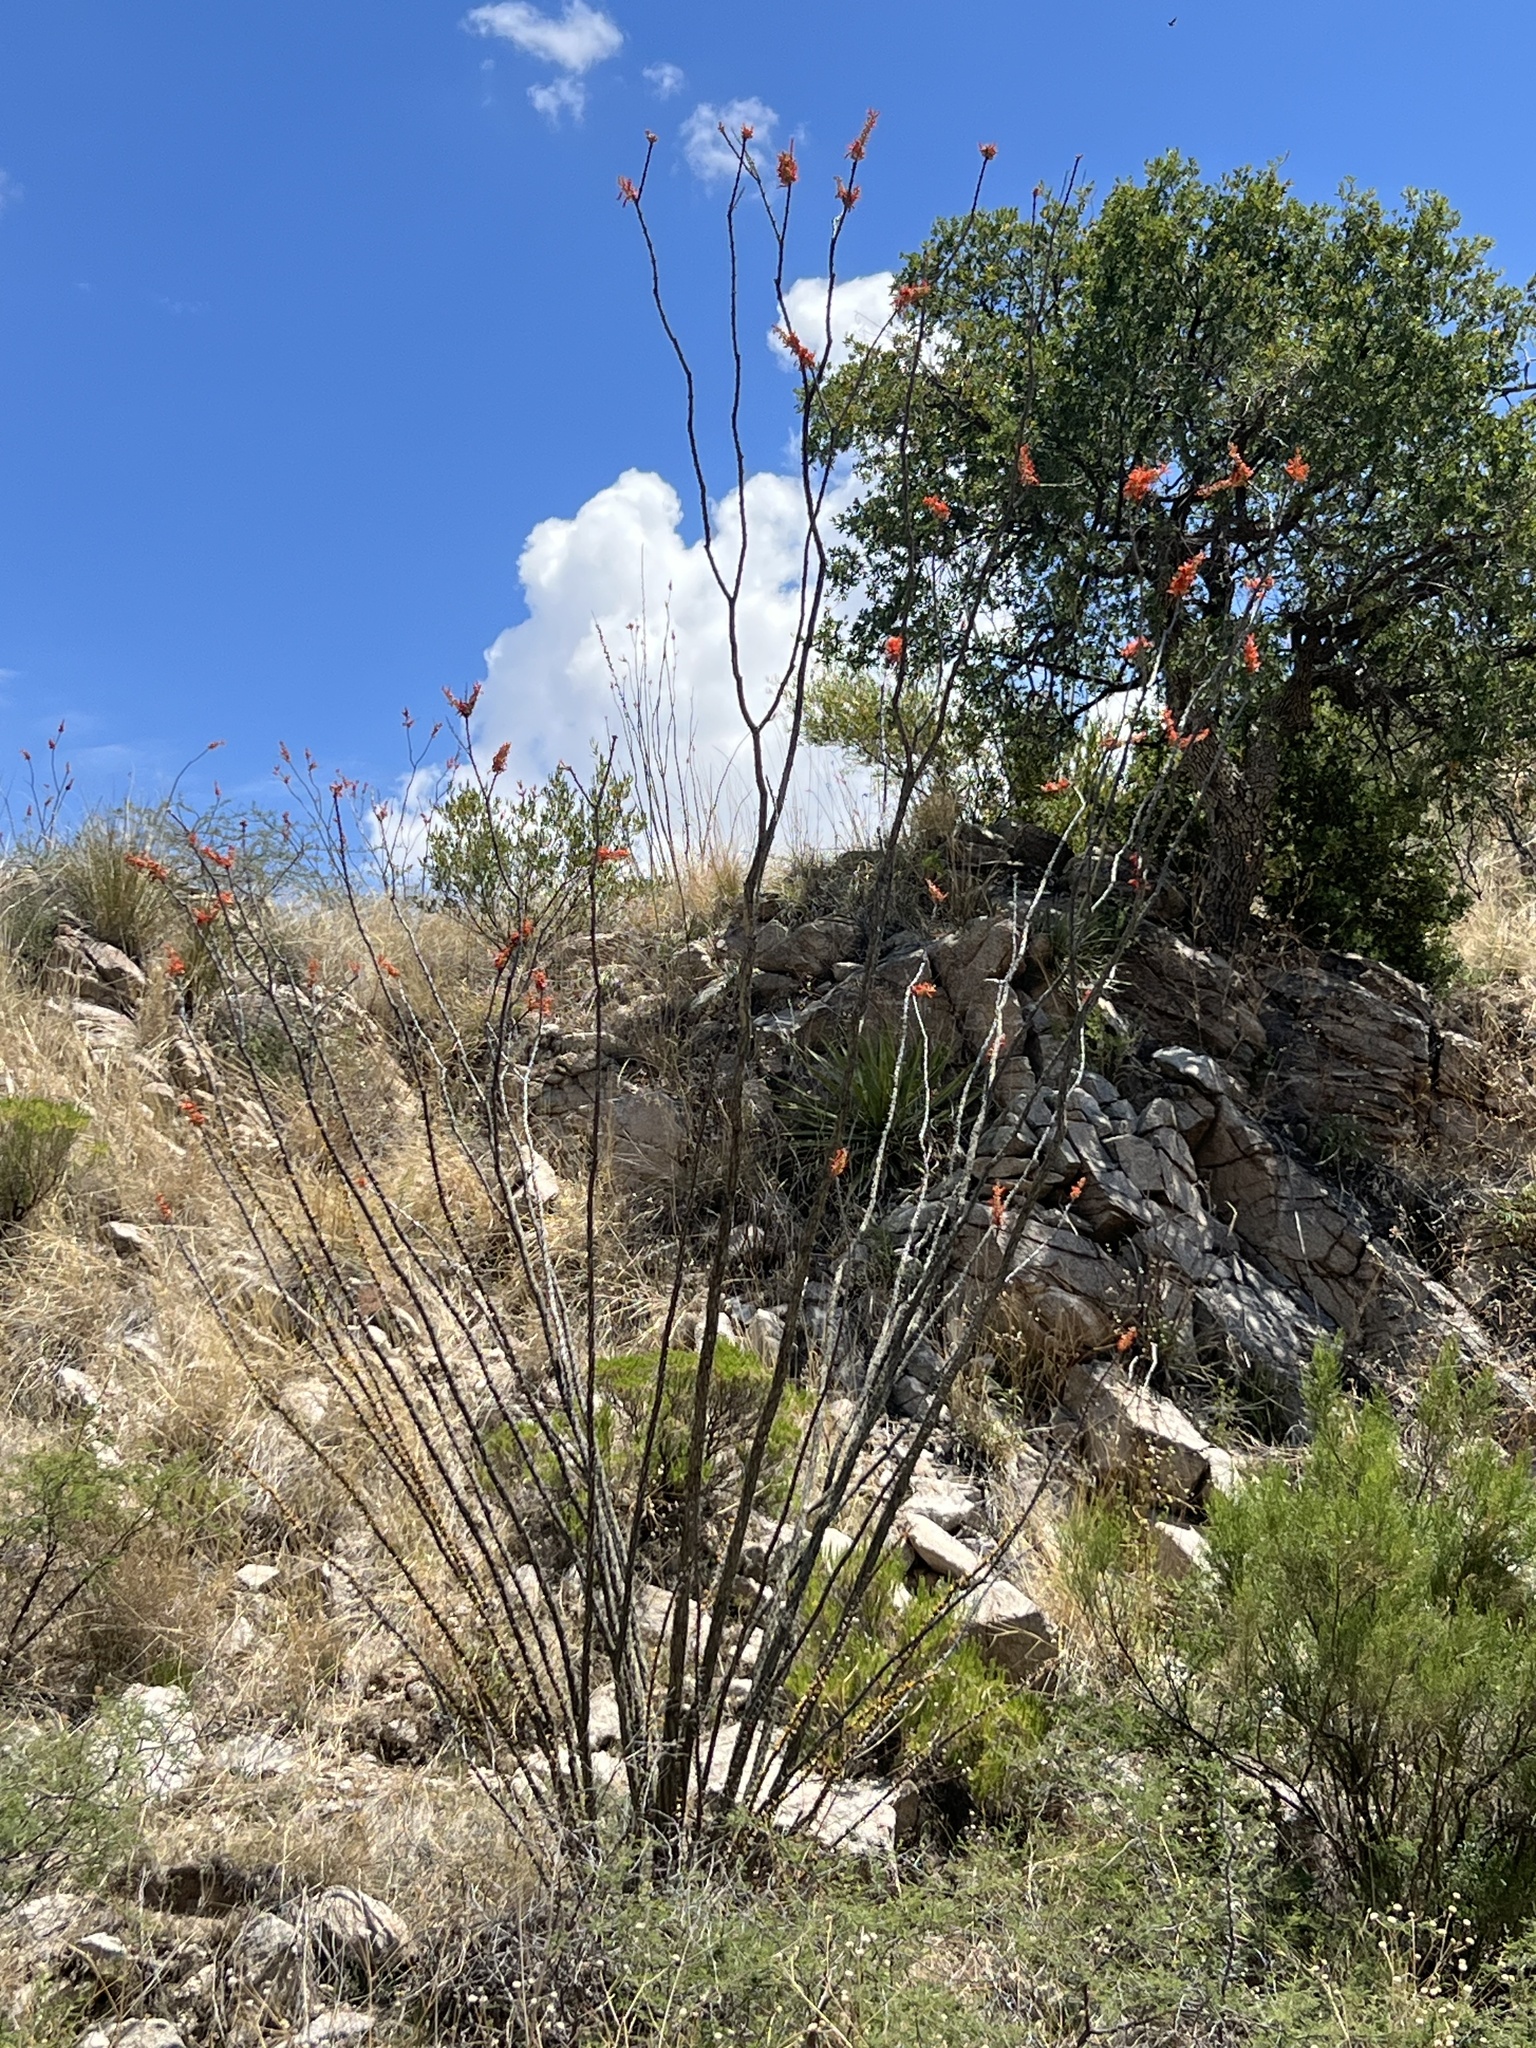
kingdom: Plantae
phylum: Tracheophyta
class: Magnoliopsida
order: Ericales
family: Fouquieriaceae
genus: Fouquieria
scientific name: Fouquieria splendens
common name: Vine-cactus
